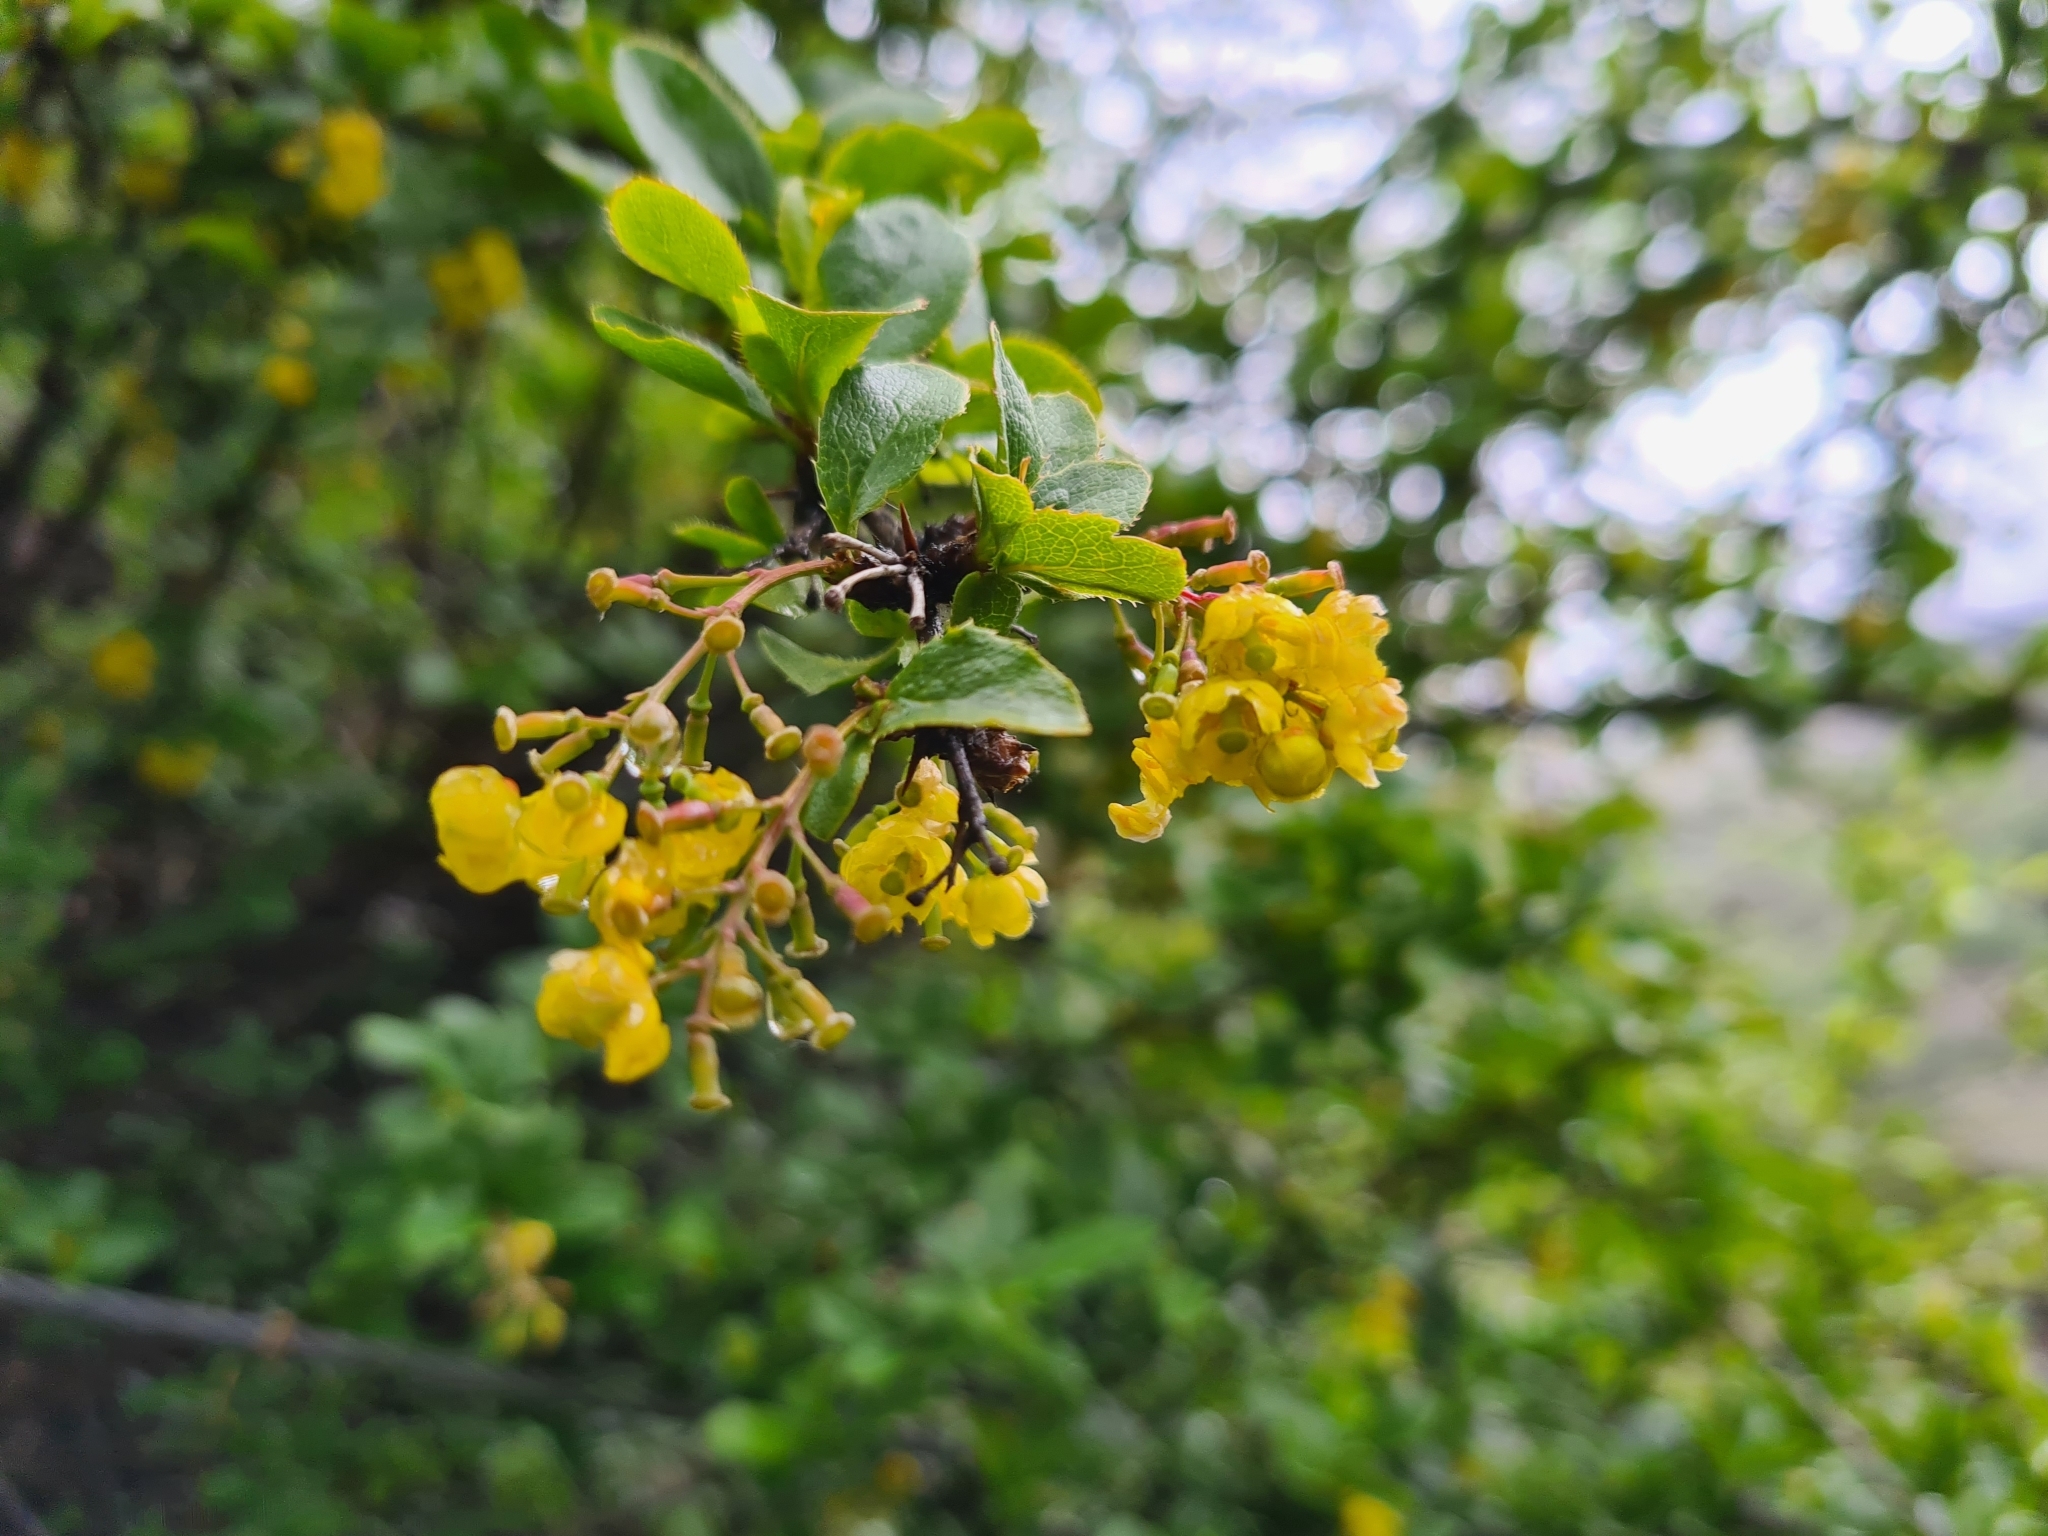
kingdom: Plantae
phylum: Tracheophyta
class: Magnoliopsida
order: Ranunculales
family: Berberidaceae
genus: Berberis
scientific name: Berberis vulgaris
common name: Barberry
